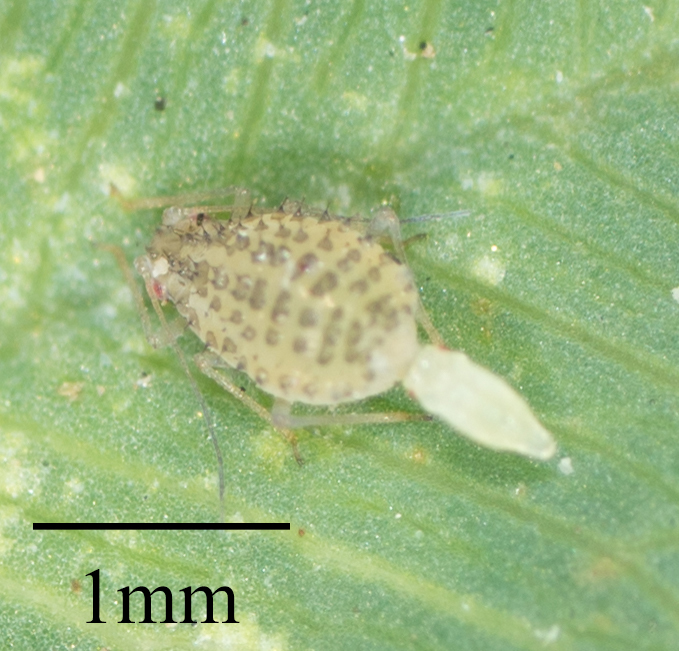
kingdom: Animalia
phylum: Arthropoda
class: Insecta
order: Hemiptera
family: Aphididae
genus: Therioaphis
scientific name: Therioaphis trifolii
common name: Spotted alfalfa aphid
